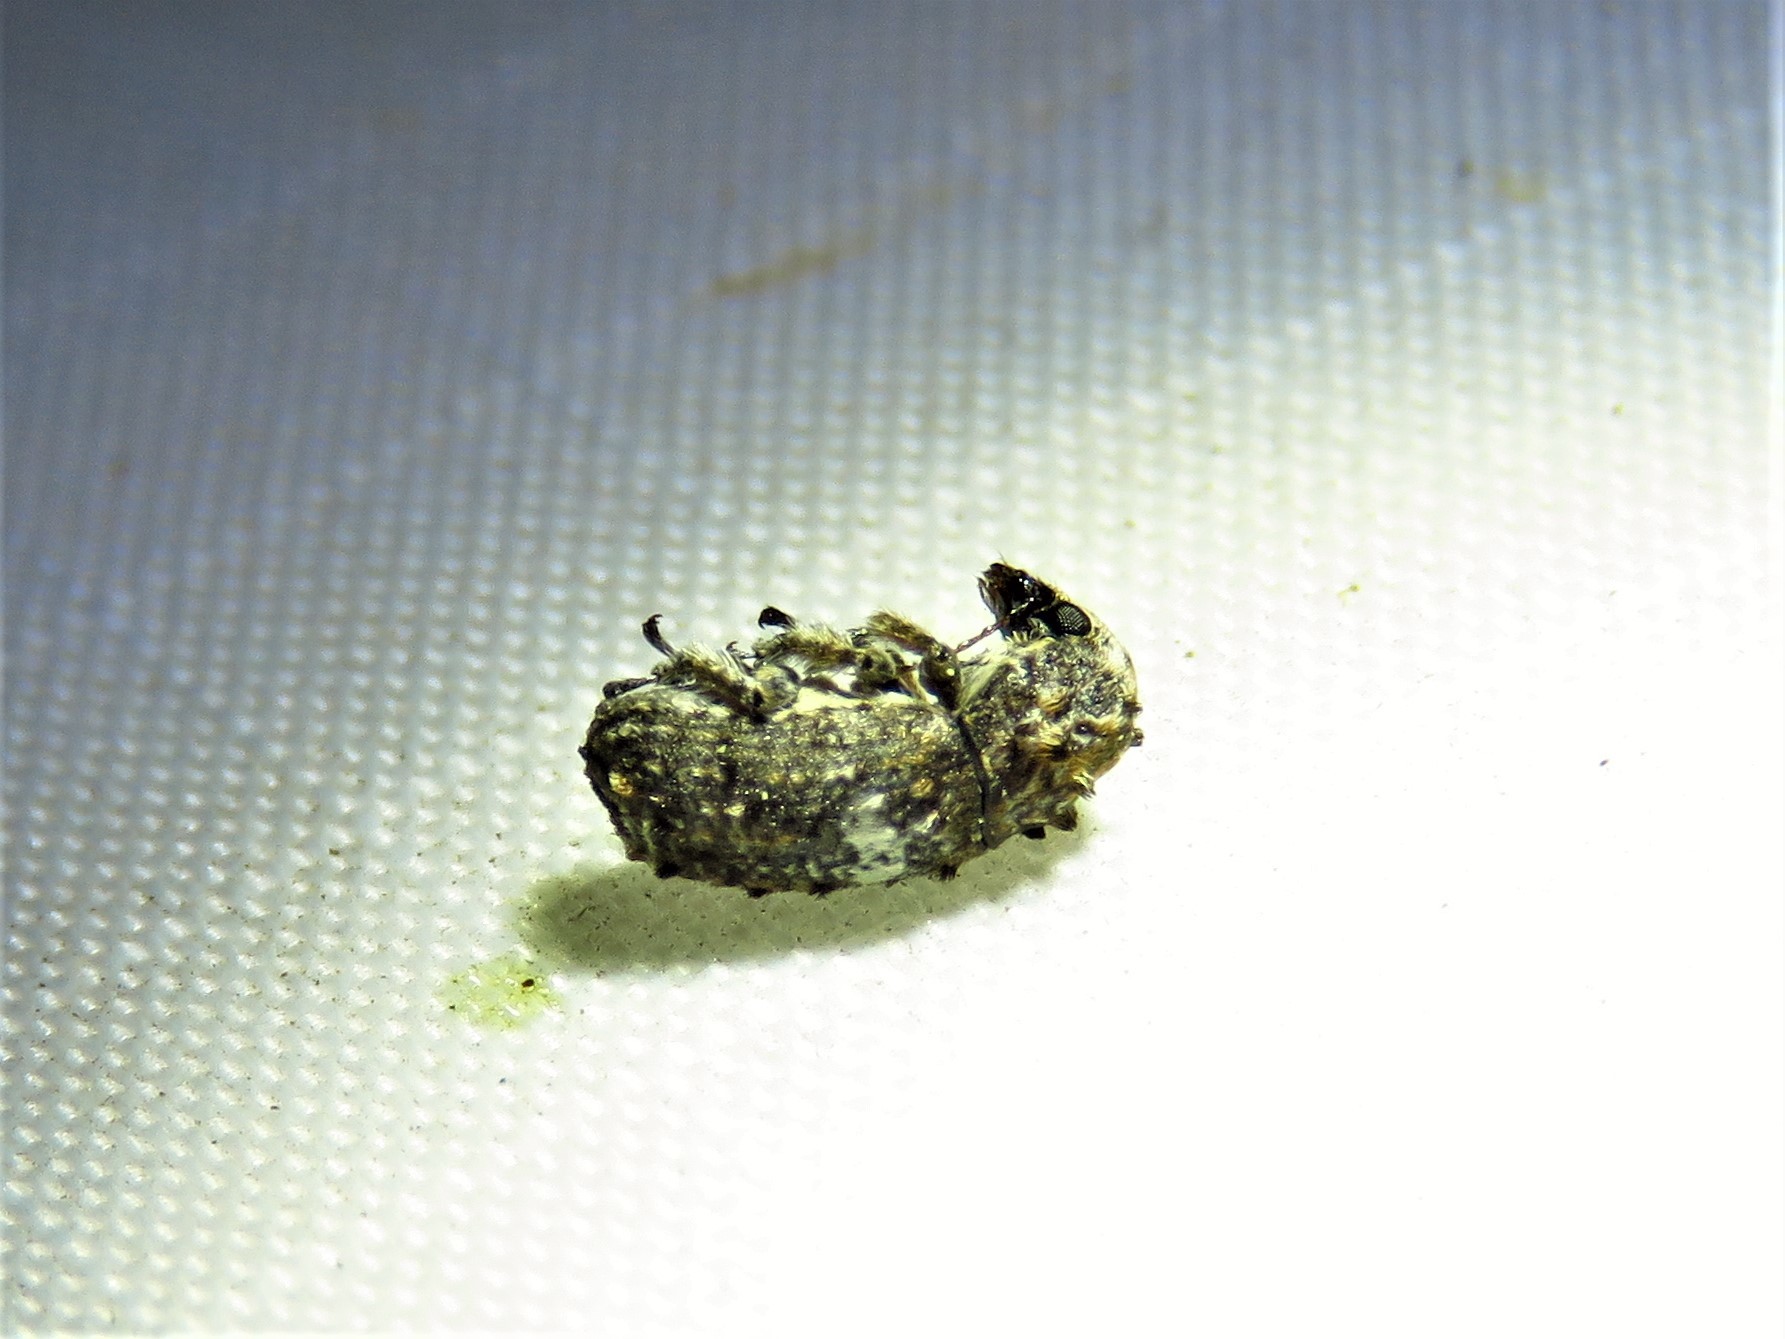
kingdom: Animalia
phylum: Arthropoda
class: Insecta
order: Coleoptera
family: Anthribidae
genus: Toxonotus
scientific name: Toxonotus cornutus
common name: Fungus weevil
